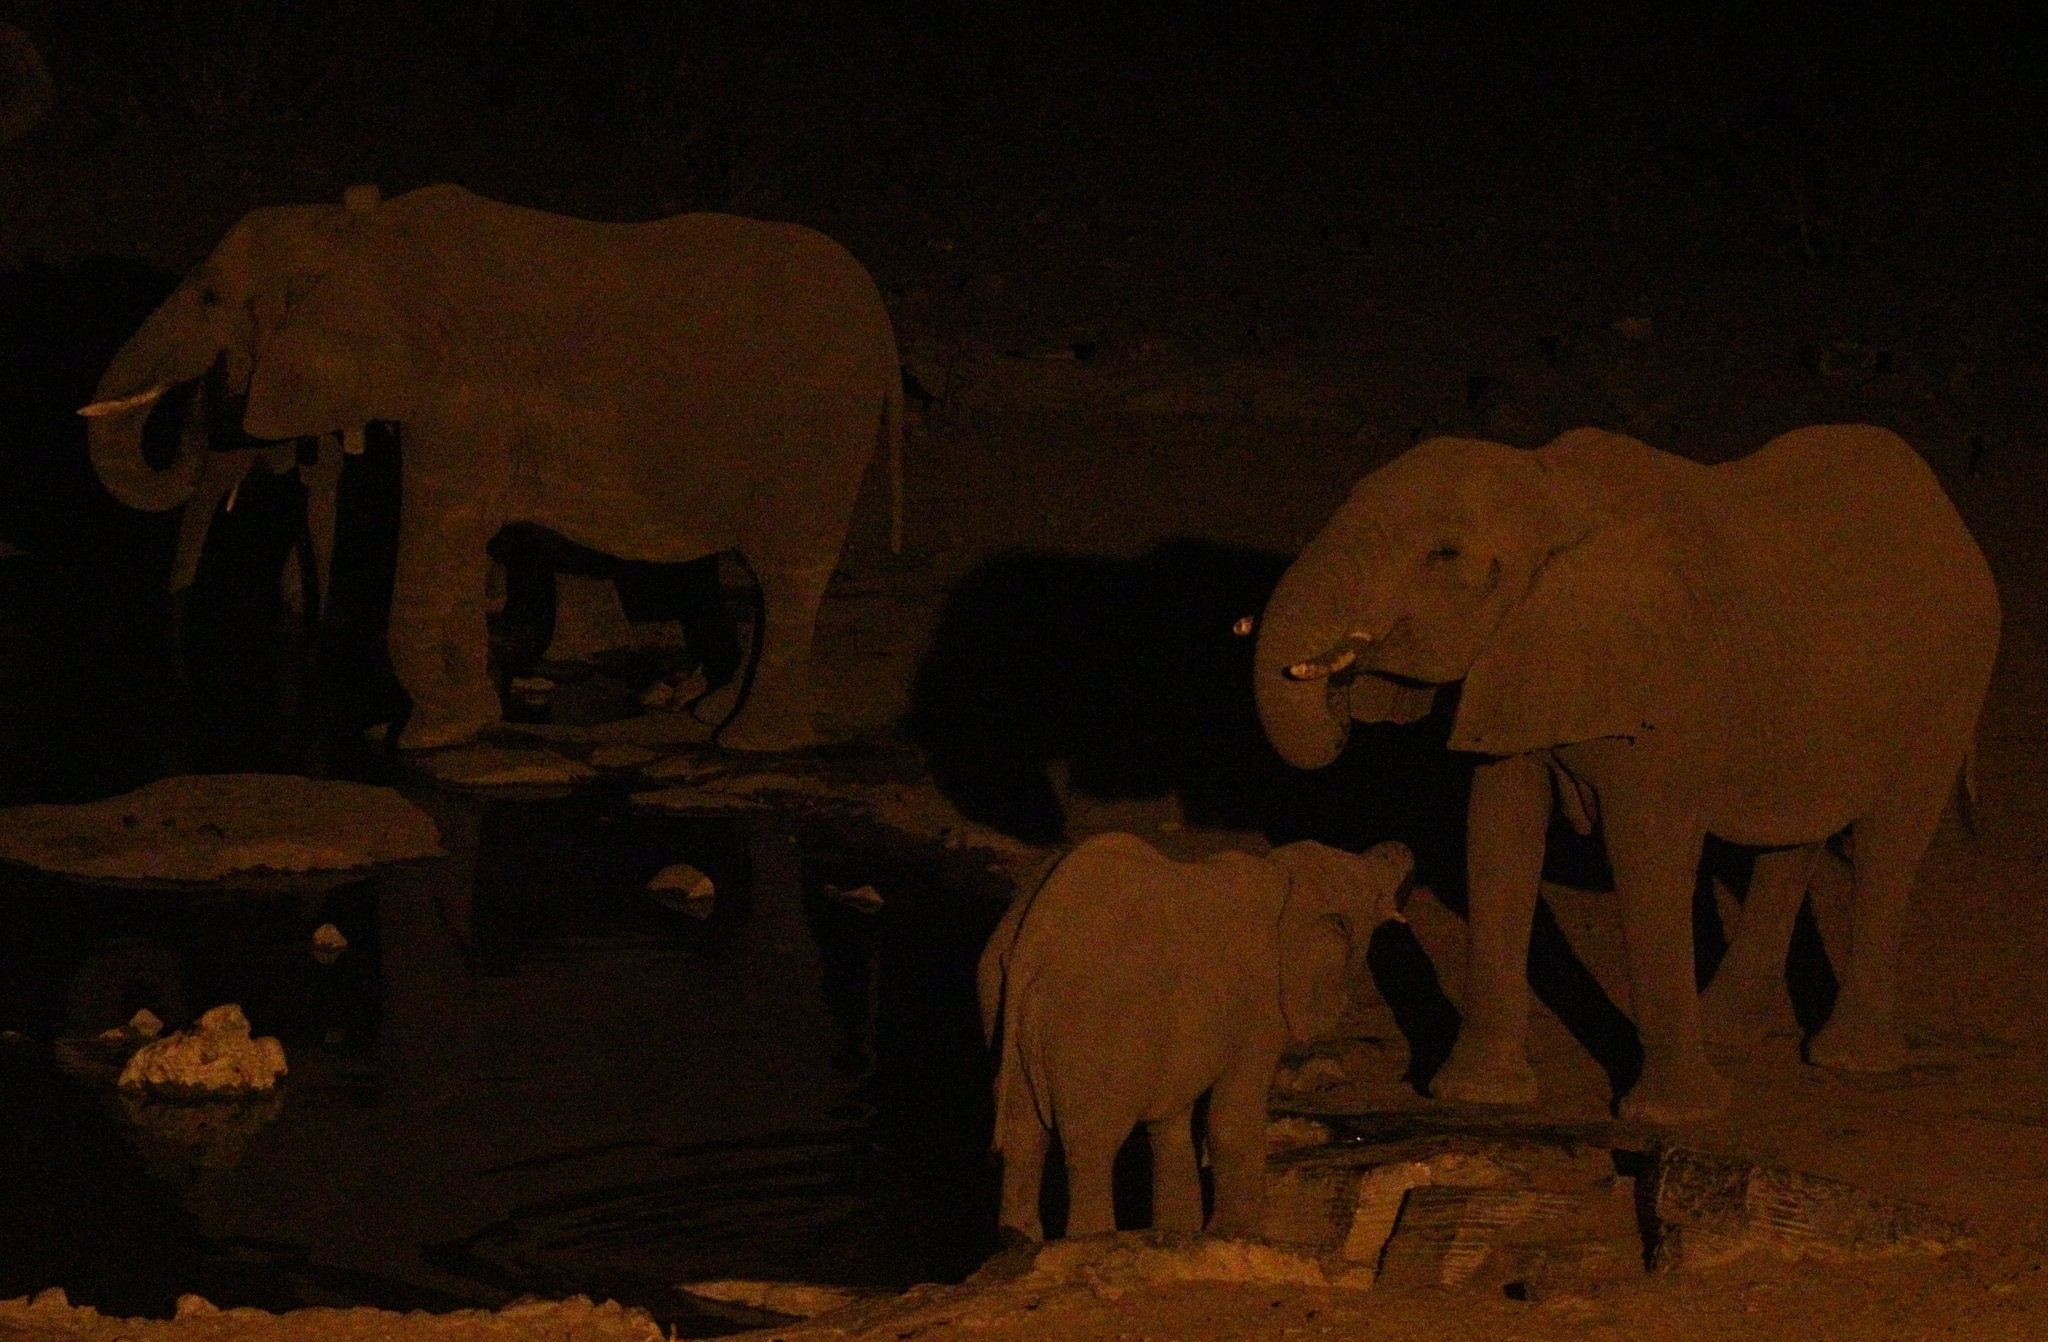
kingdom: Animalia
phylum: Chordata
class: Mammalia
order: Proboscidea
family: Elephantidae
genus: Loxodonta
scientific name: Loxodonta africana
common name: African elephant
